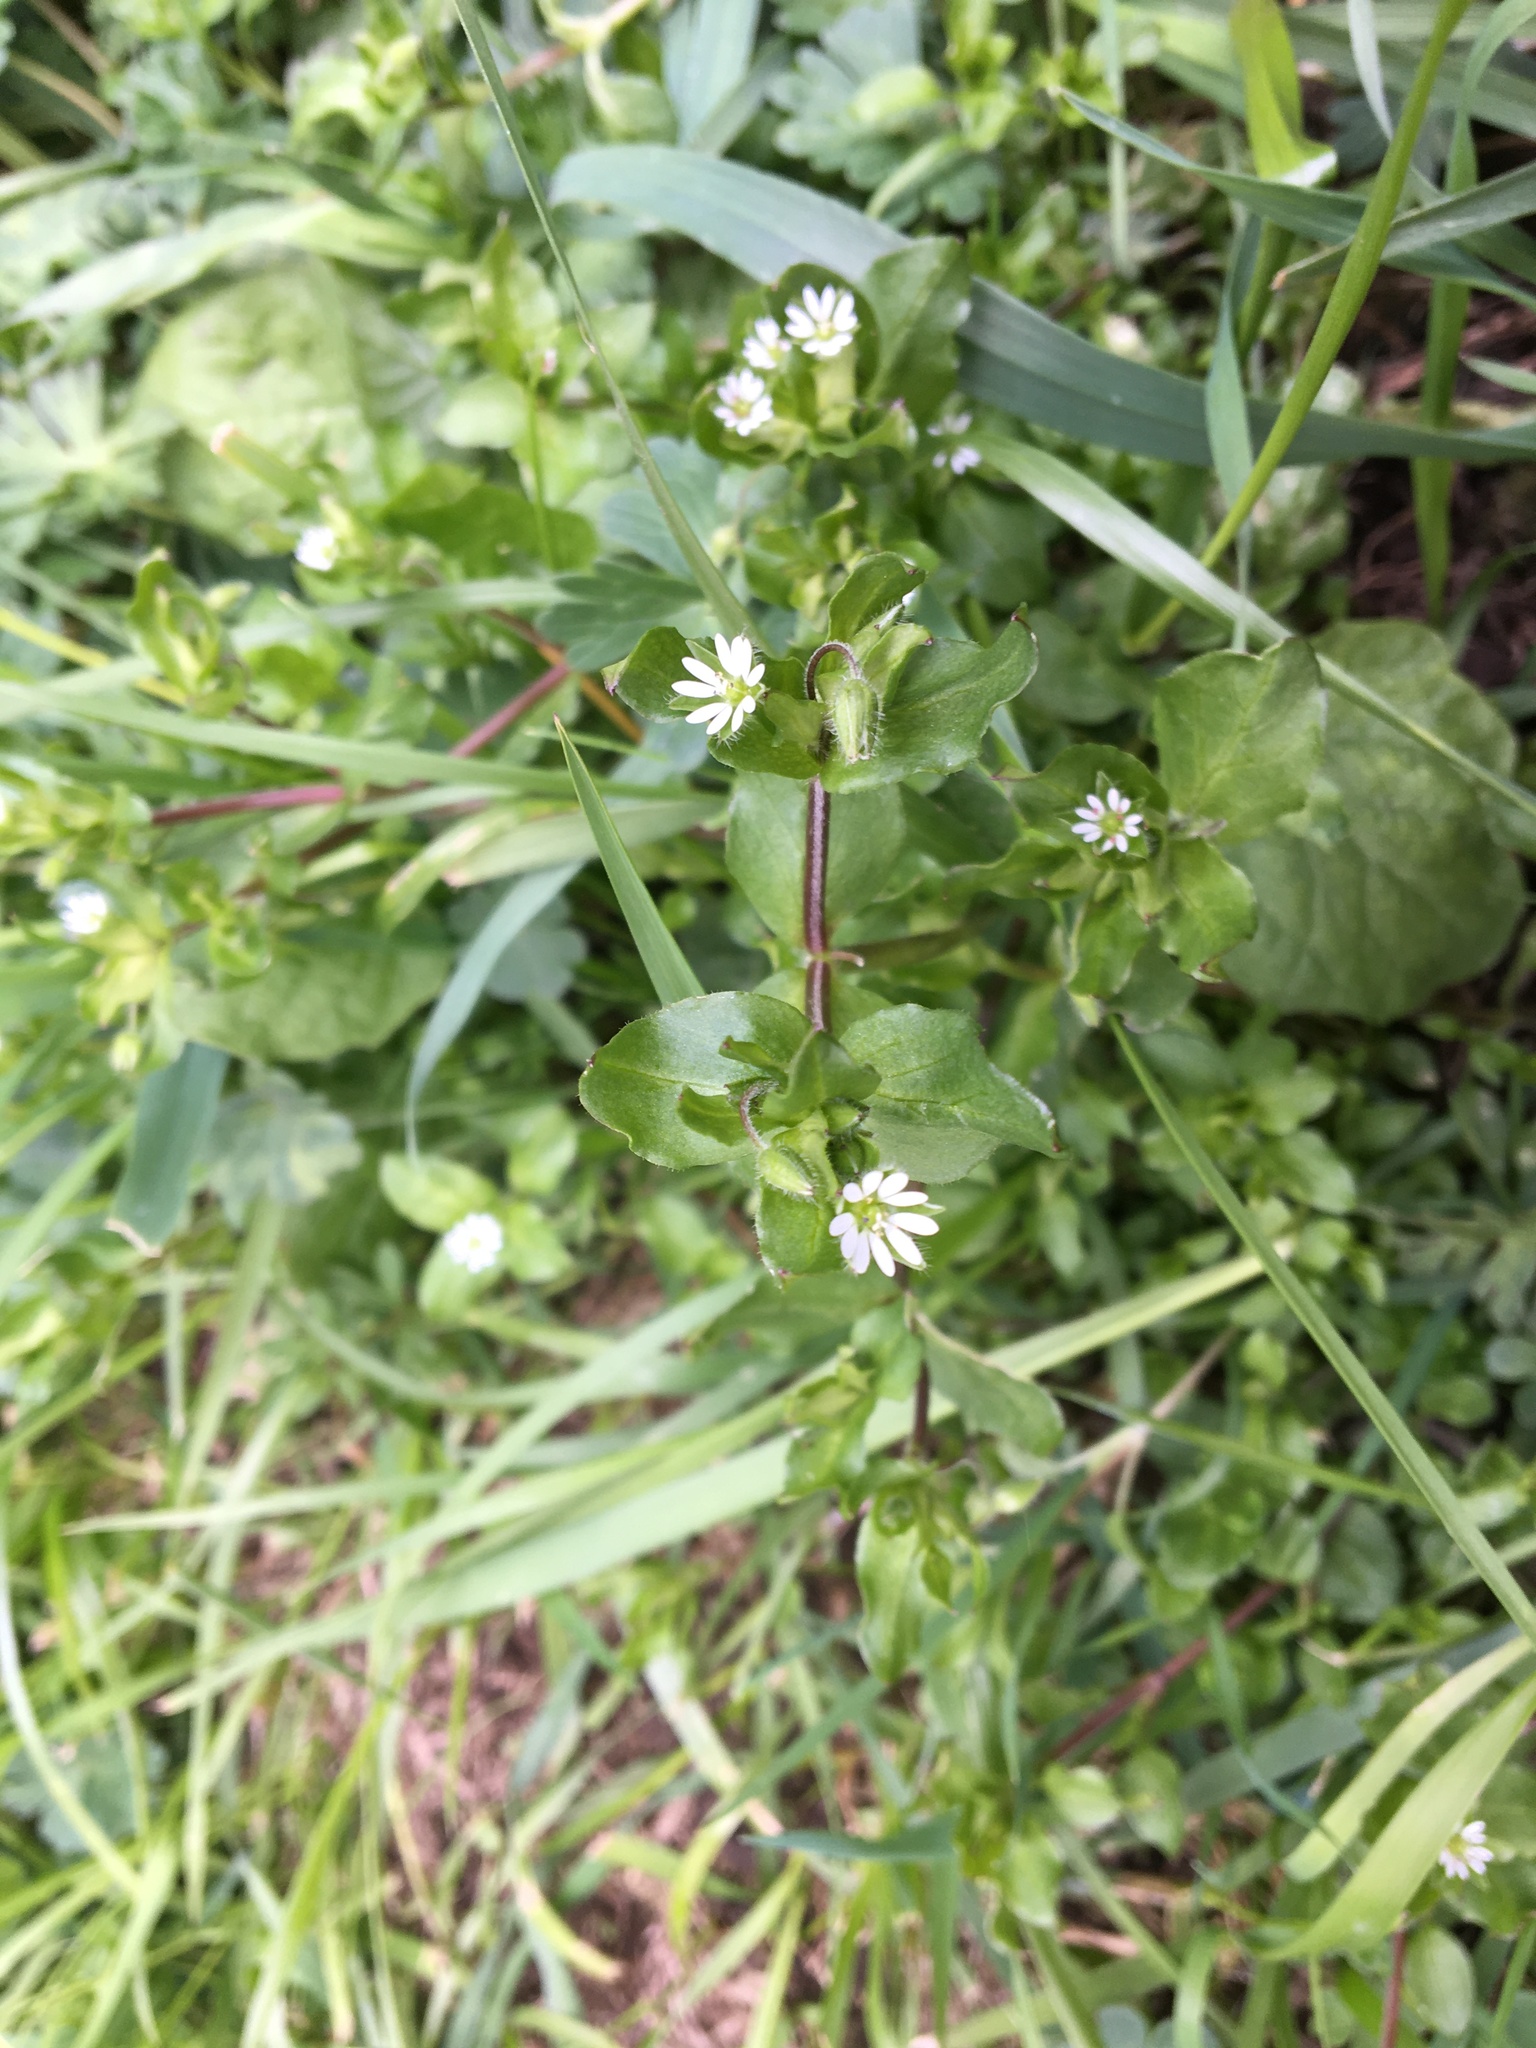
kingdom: Plantae
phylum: Tracheophyta
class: Magnoliopsida
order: Caryophyllales
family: Caryophyllaceae
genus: Stellaria
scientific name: Stellaria media
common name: Common chickweed
